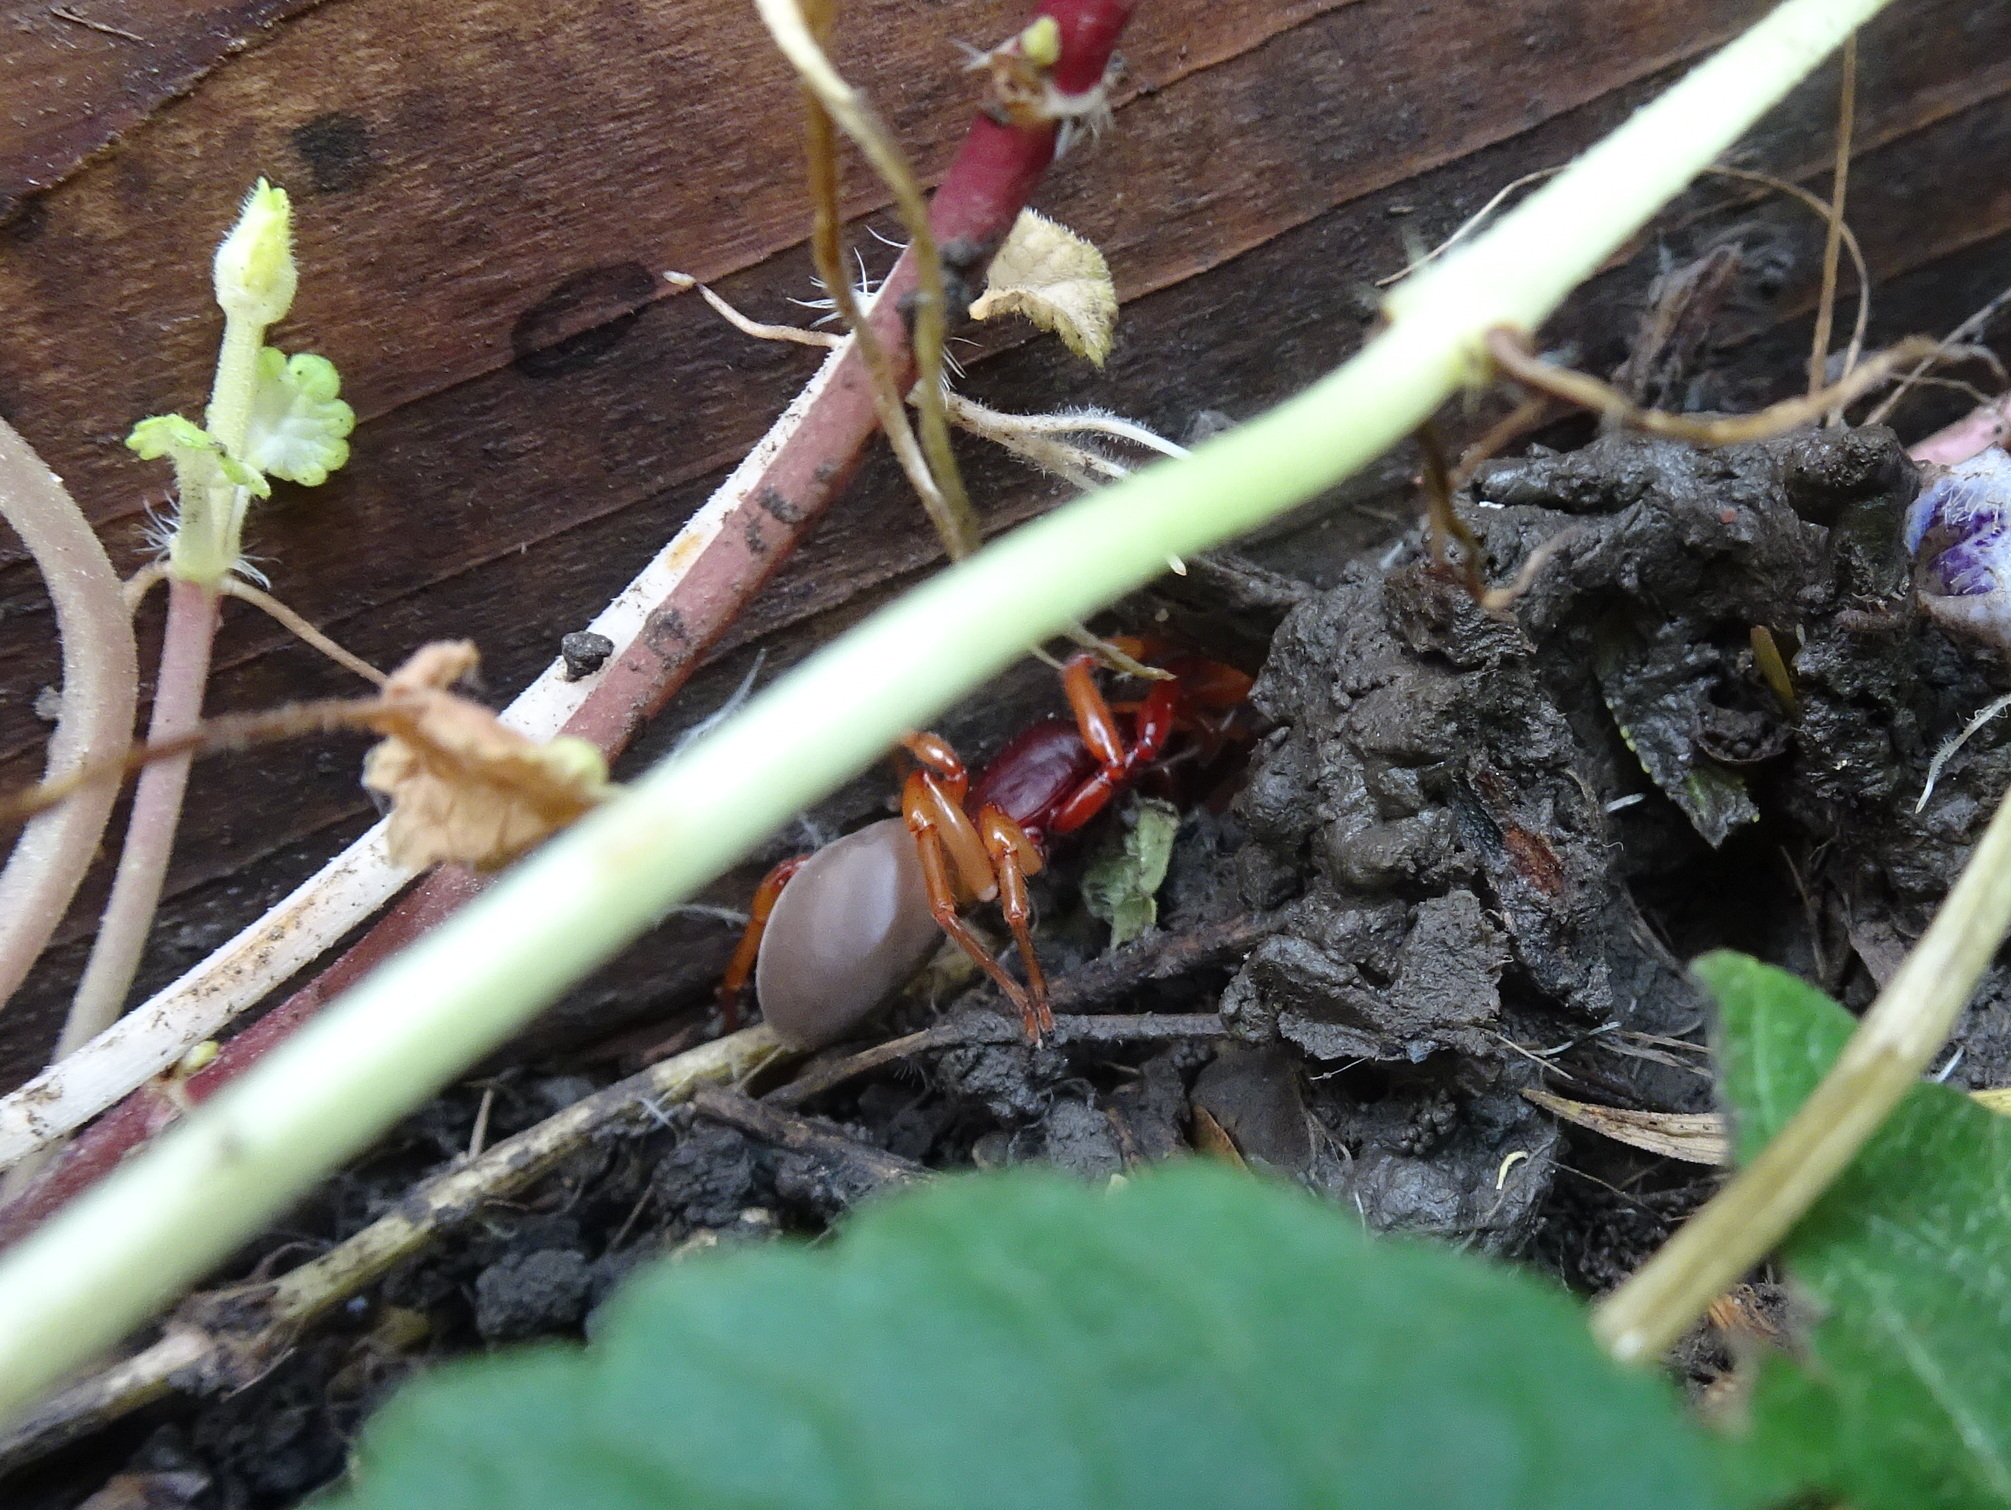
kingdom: Animalia
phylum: Arthropoda
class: Arachnida
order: Araneae
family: Dysderidae
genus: Dysdera
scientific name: Dysdera crocata
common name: Woodlouse spider
